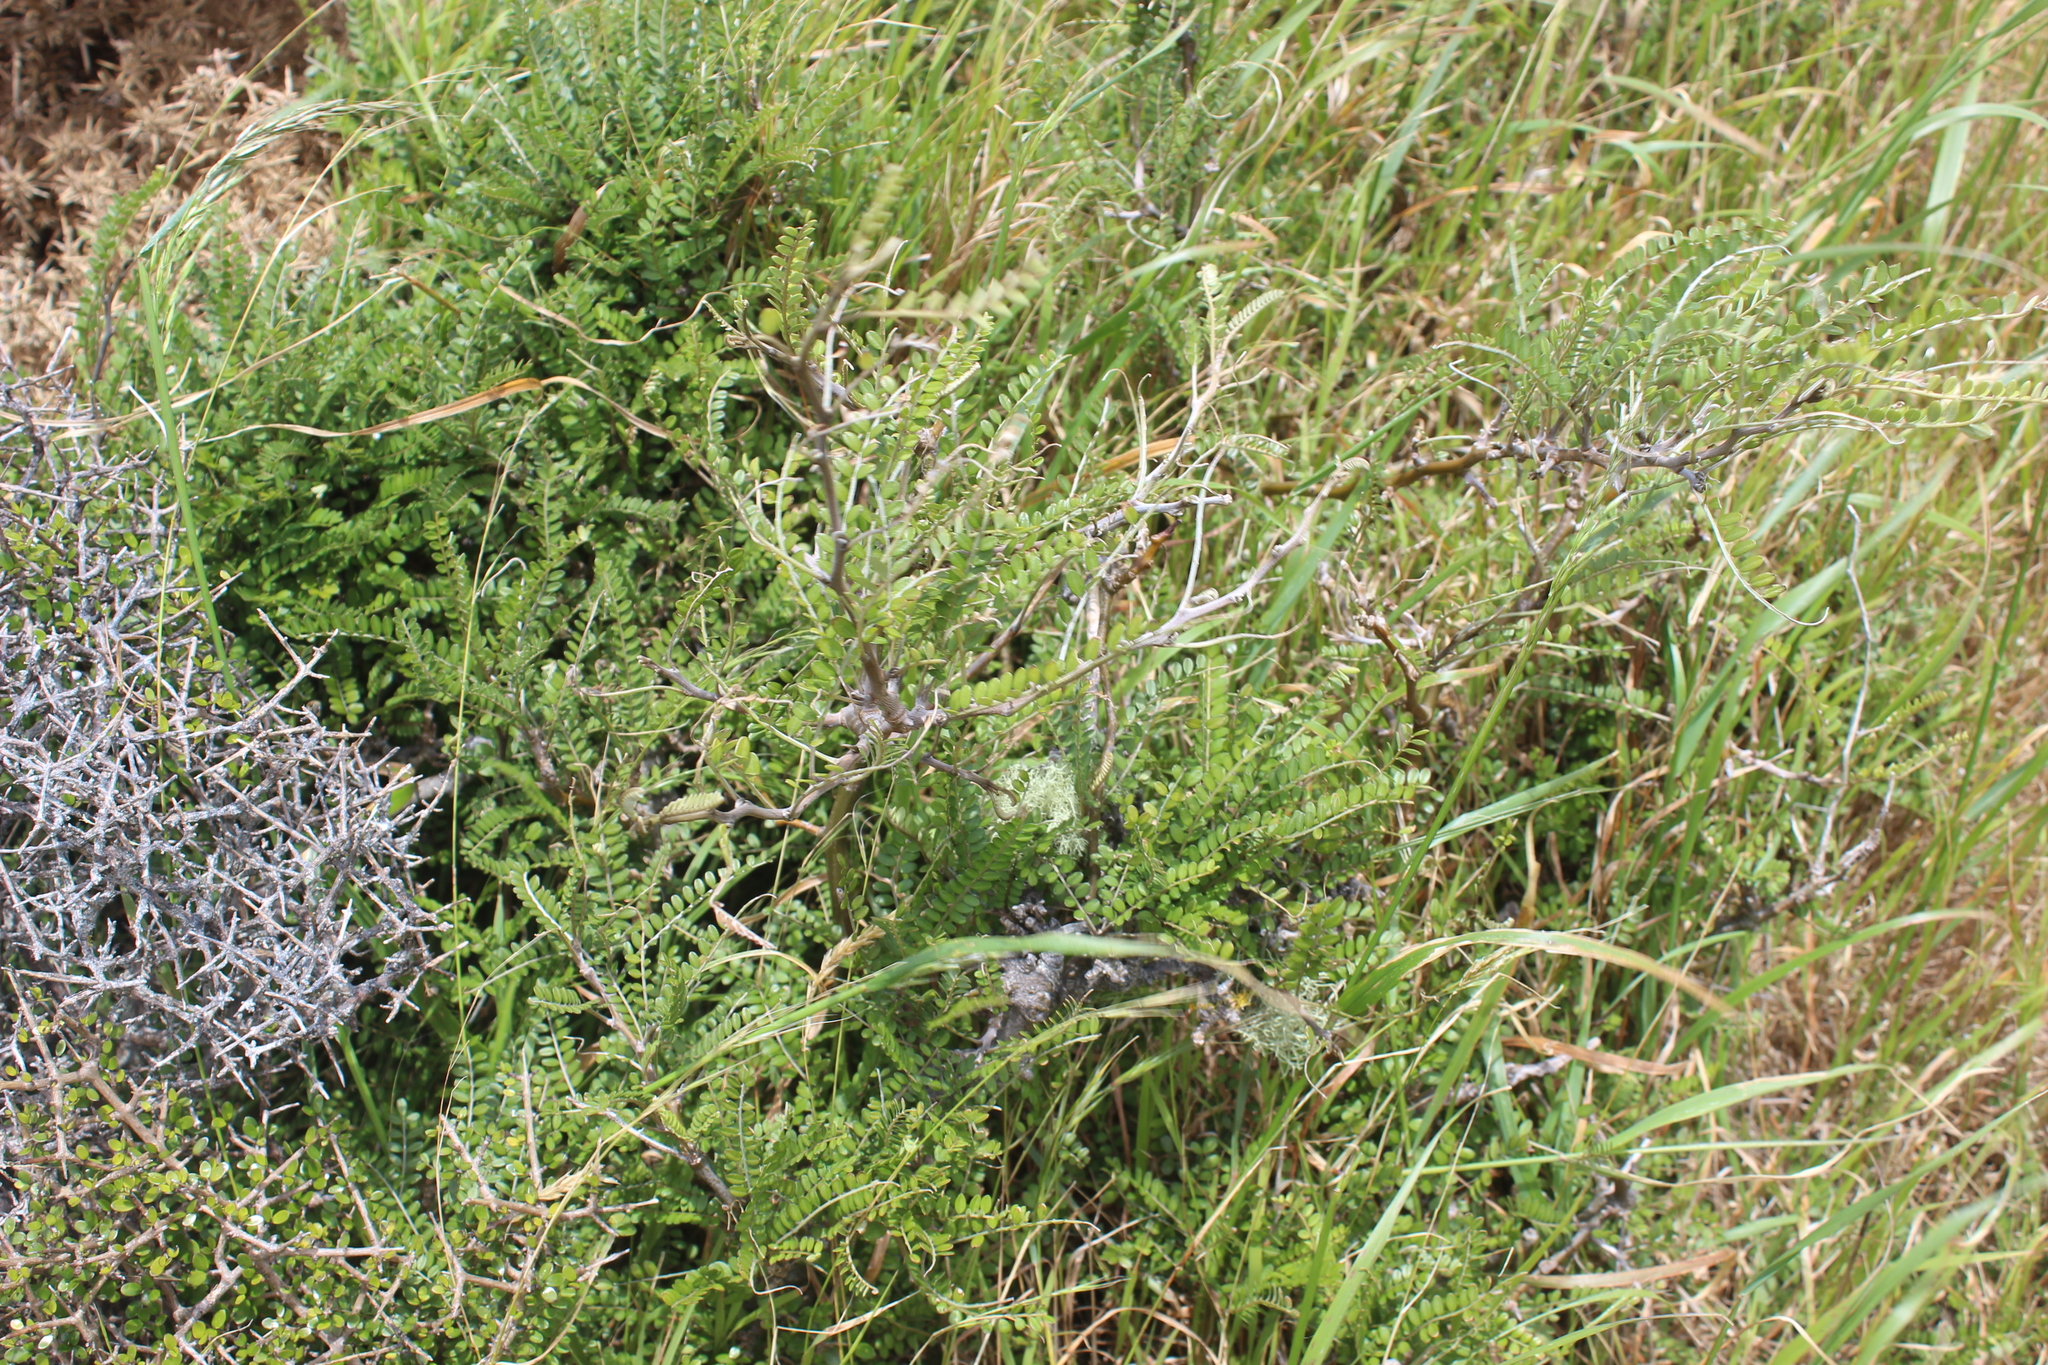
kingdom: Plantae
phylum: Tracheophyta
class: Magnoliopsida
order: Fabales
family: Fabaceae
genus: Sophora
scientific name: Sophora molloyi
